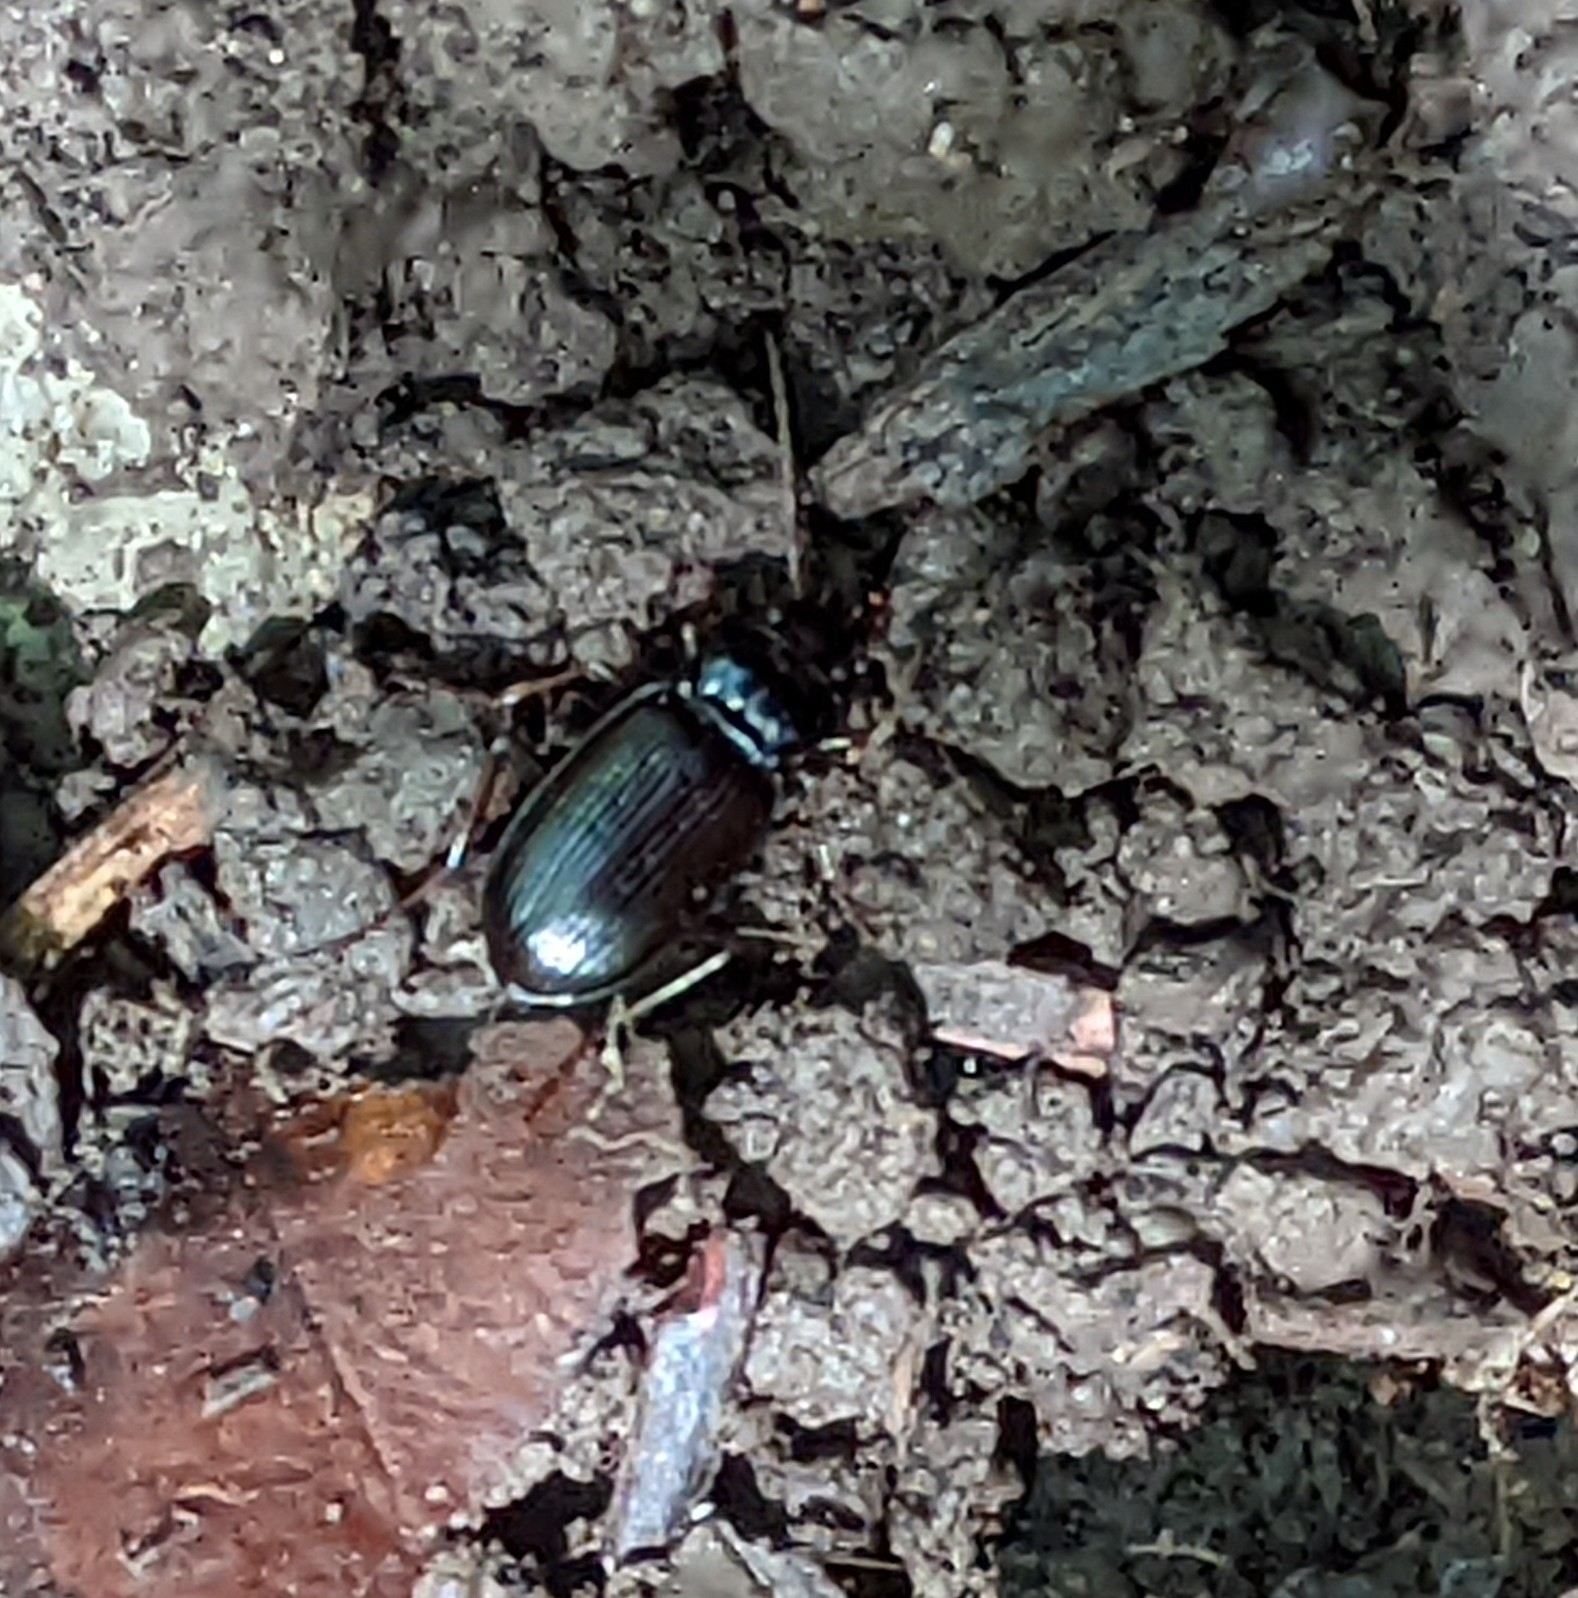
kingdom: Animalia
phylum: Arthropoda
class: Insecta
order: Coleoptera
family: Carabidae
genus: Nebria
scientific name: Nebria brevicollis
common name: Short-necked gazelle beetle
